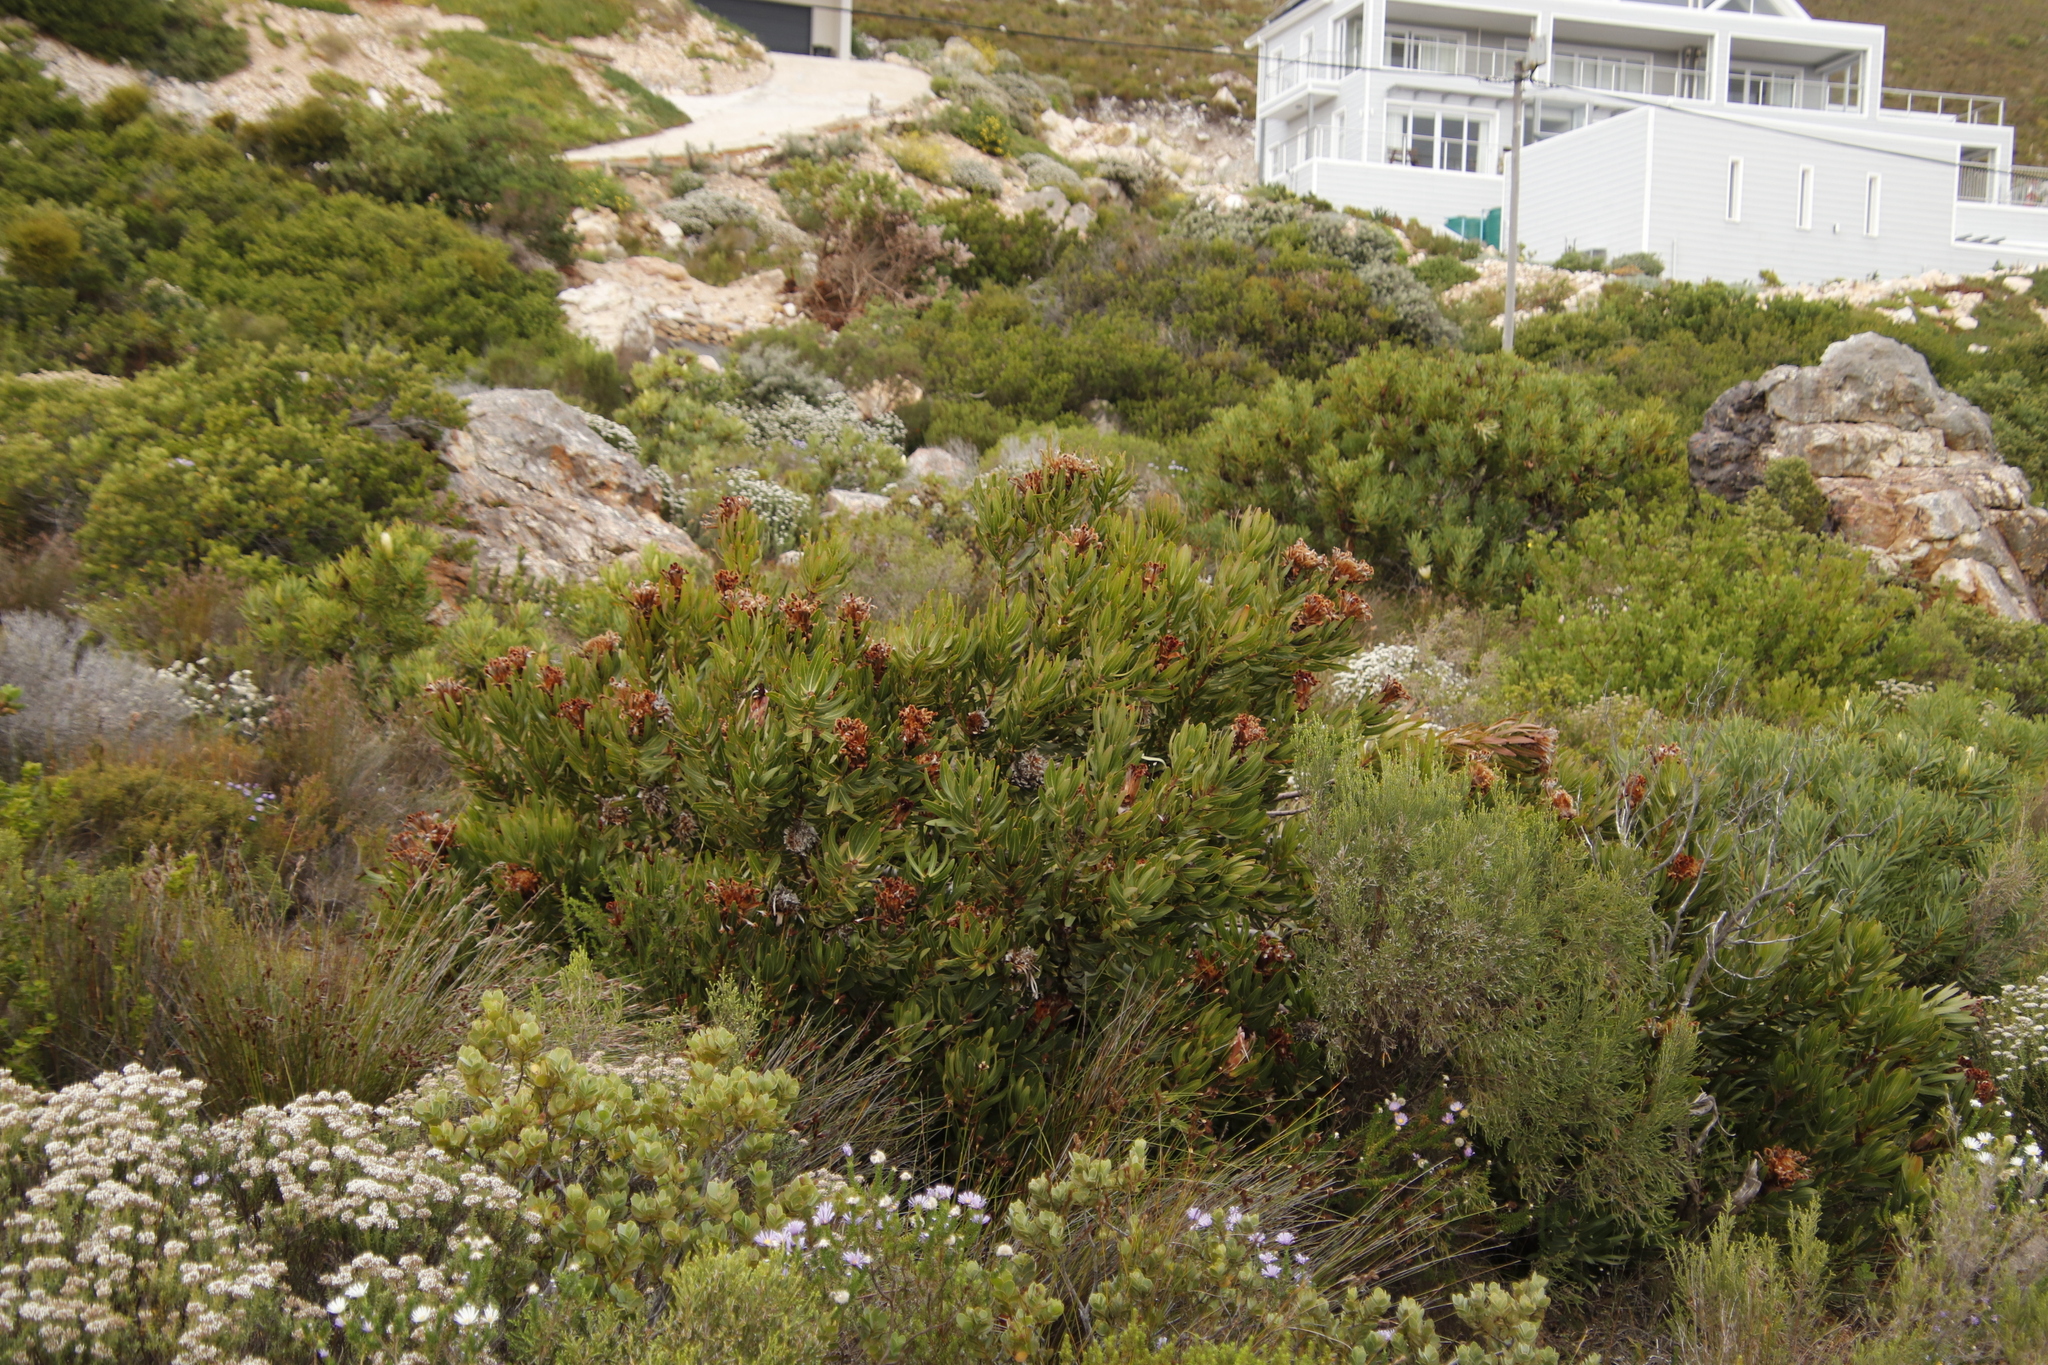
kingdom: Plantae
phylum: Tracheophyta
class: Magnoliopsida
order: Proteales
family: Proteaceae
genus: Protea
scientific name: Protea neriifolia
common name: Blue sugarbush
